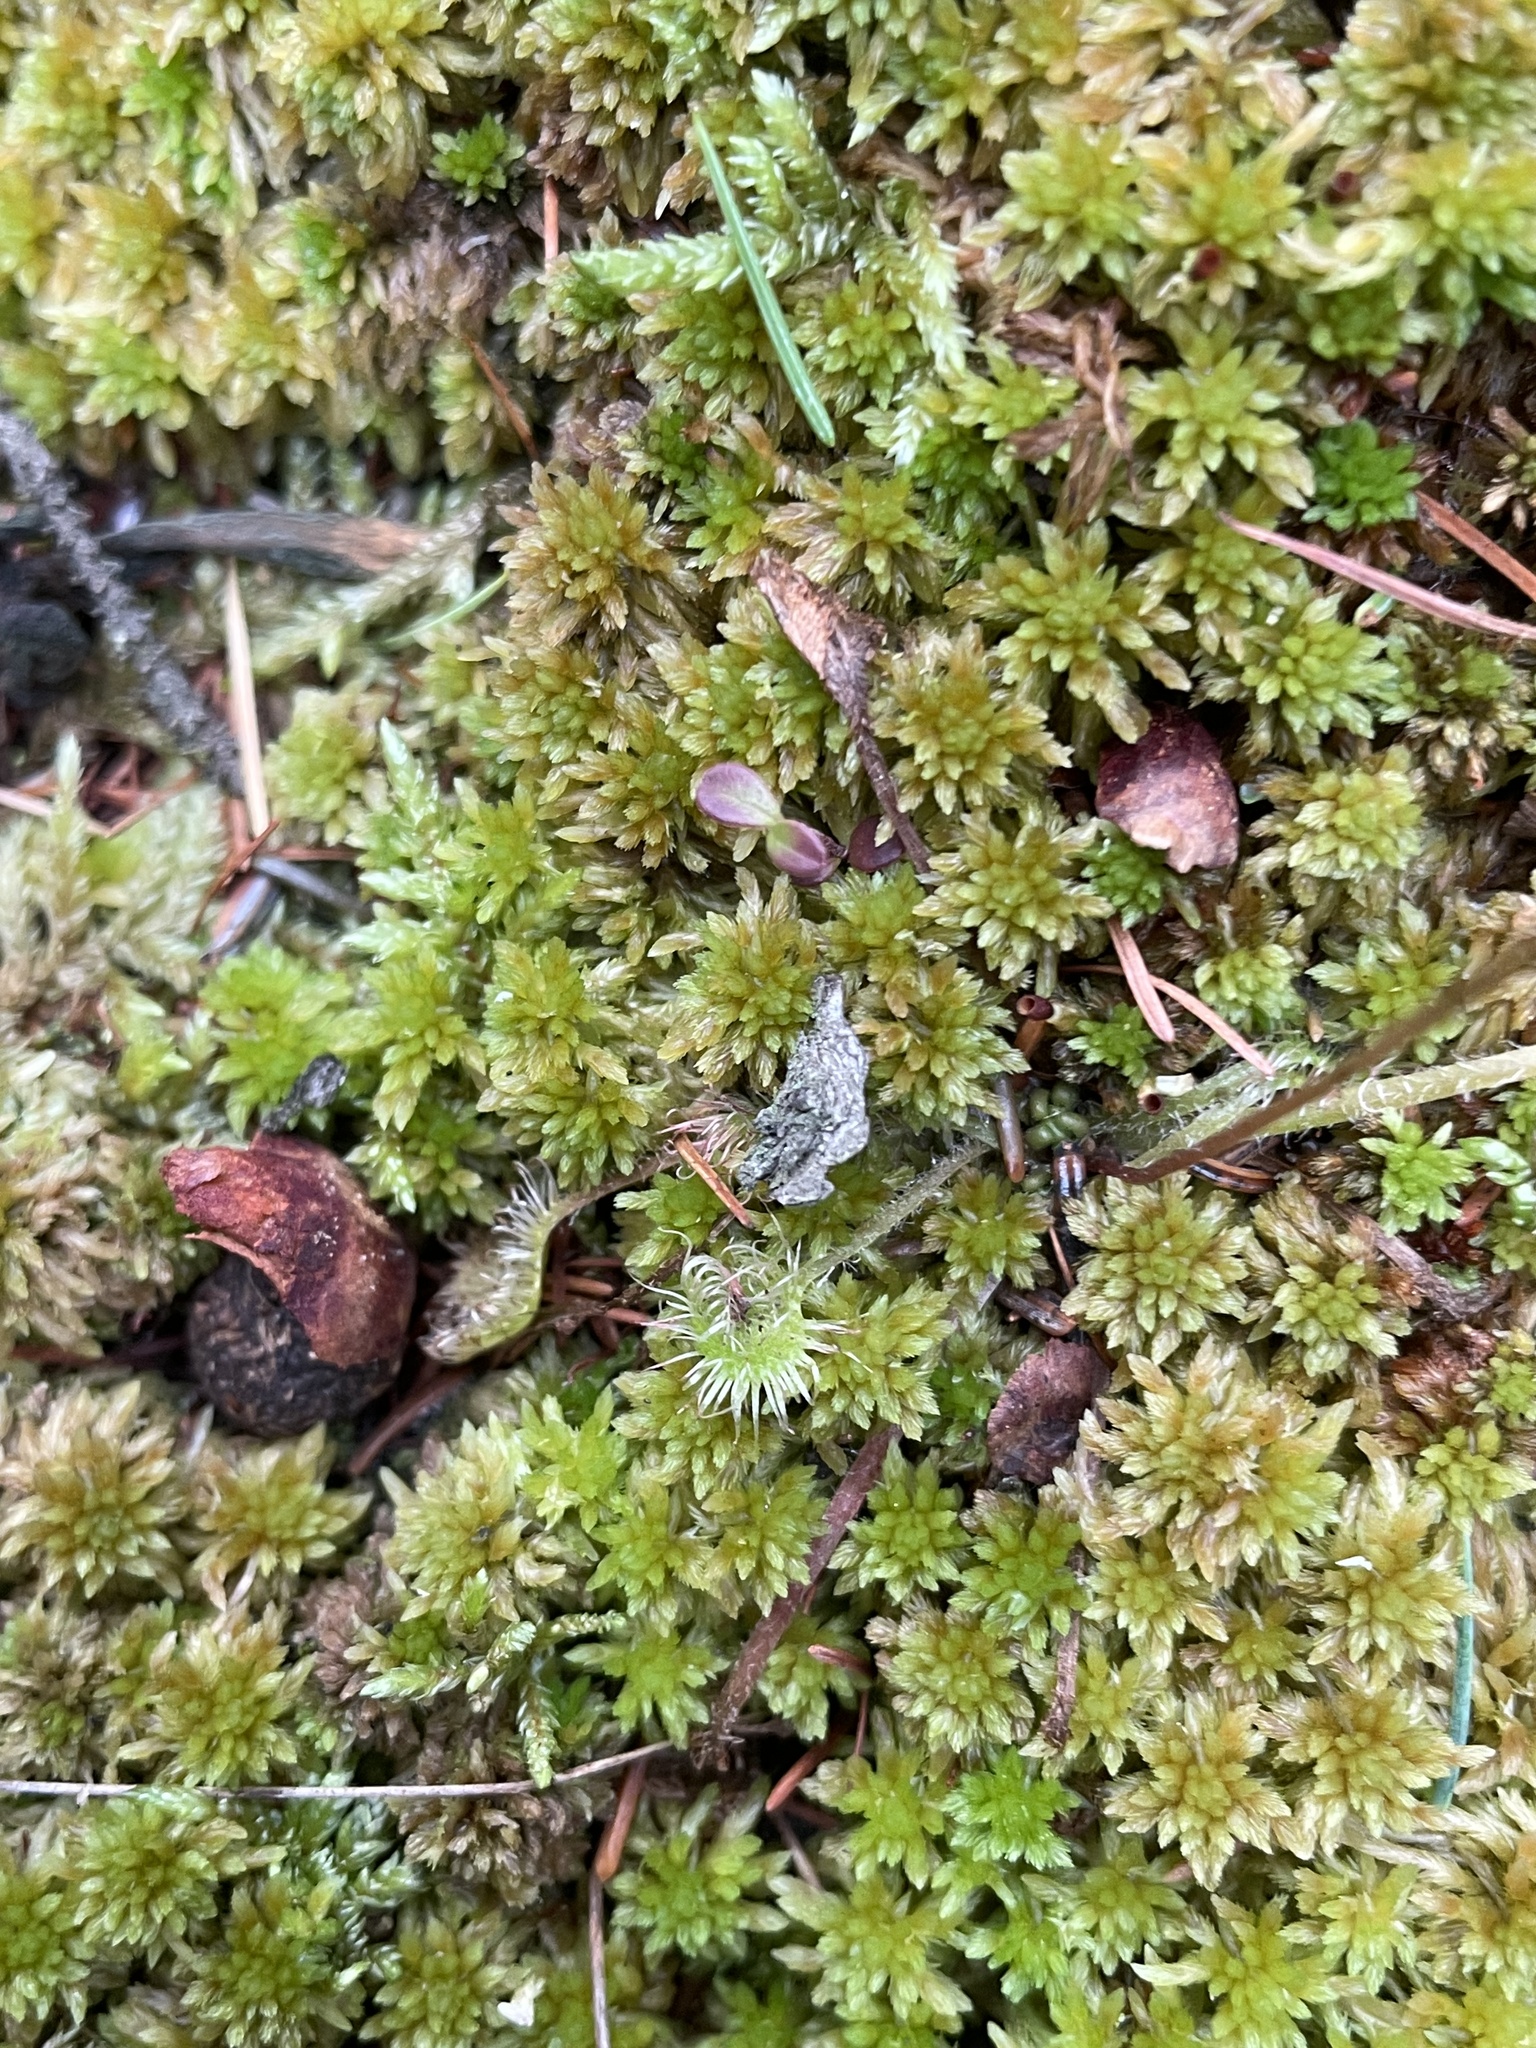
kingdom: Plantae
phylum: Tracheophyta
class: Magnoliopsida
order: Caryophyllales
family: Droseraceae
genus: Drosera
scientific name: Drosera rotundifolia
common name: Round-leaved sundew
